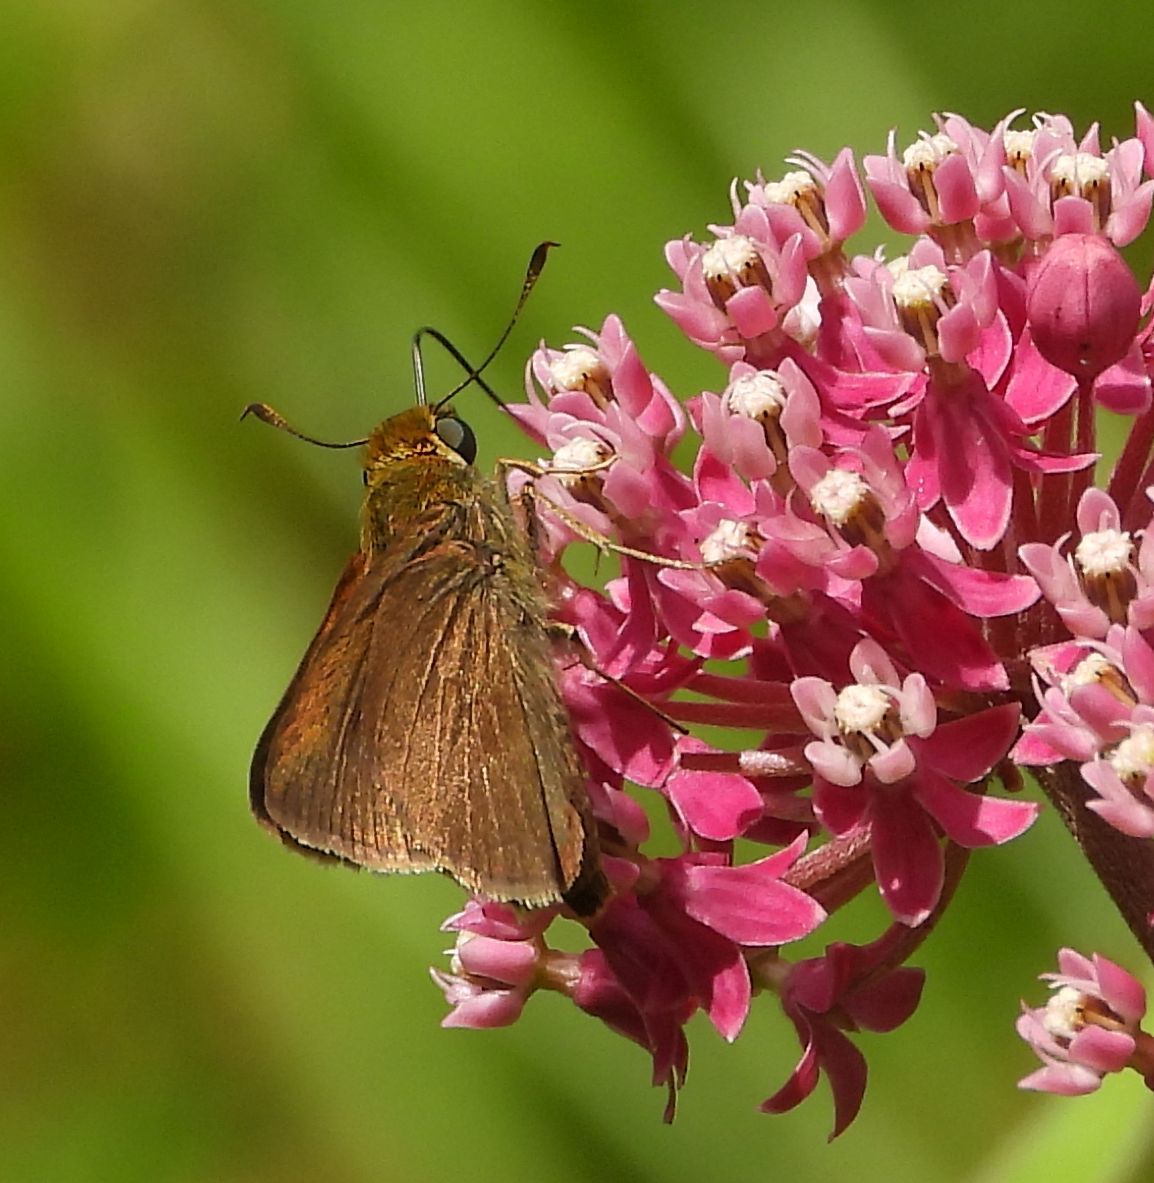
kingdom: Animalia
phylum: Arthropoda
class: Insecta
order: Lepidoptera
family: Hesperiidae
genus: Euphyes
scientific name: Euphyes vestris
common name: Dun skipper
